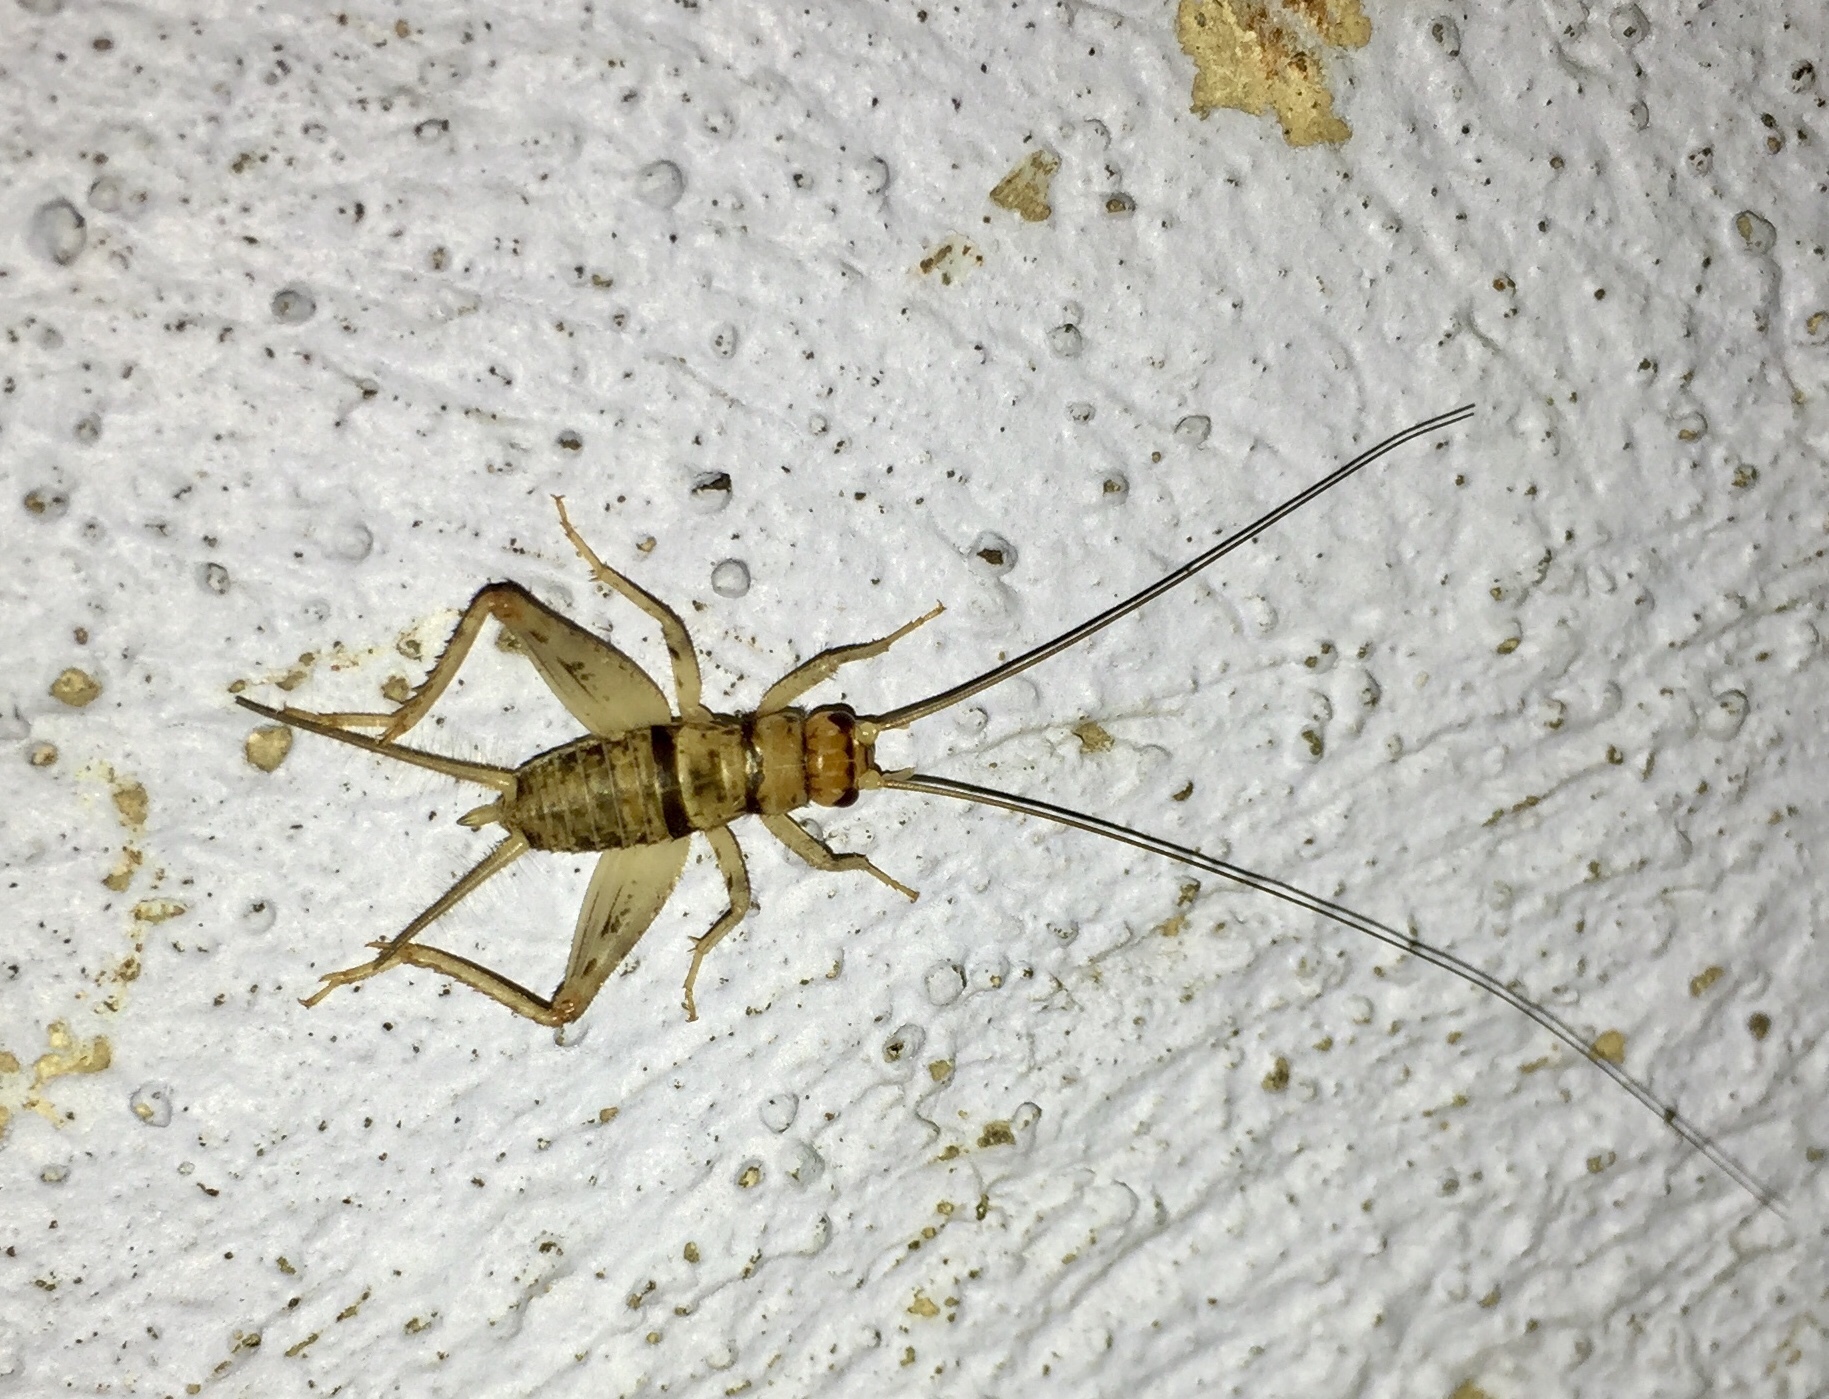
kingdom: Animalia
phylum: Arthropoda
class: Insecta
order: Orthoptera
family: Gryllidae
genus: Gryllodes
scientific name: Gryllodes sigillatus
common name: Tropical house cricket
